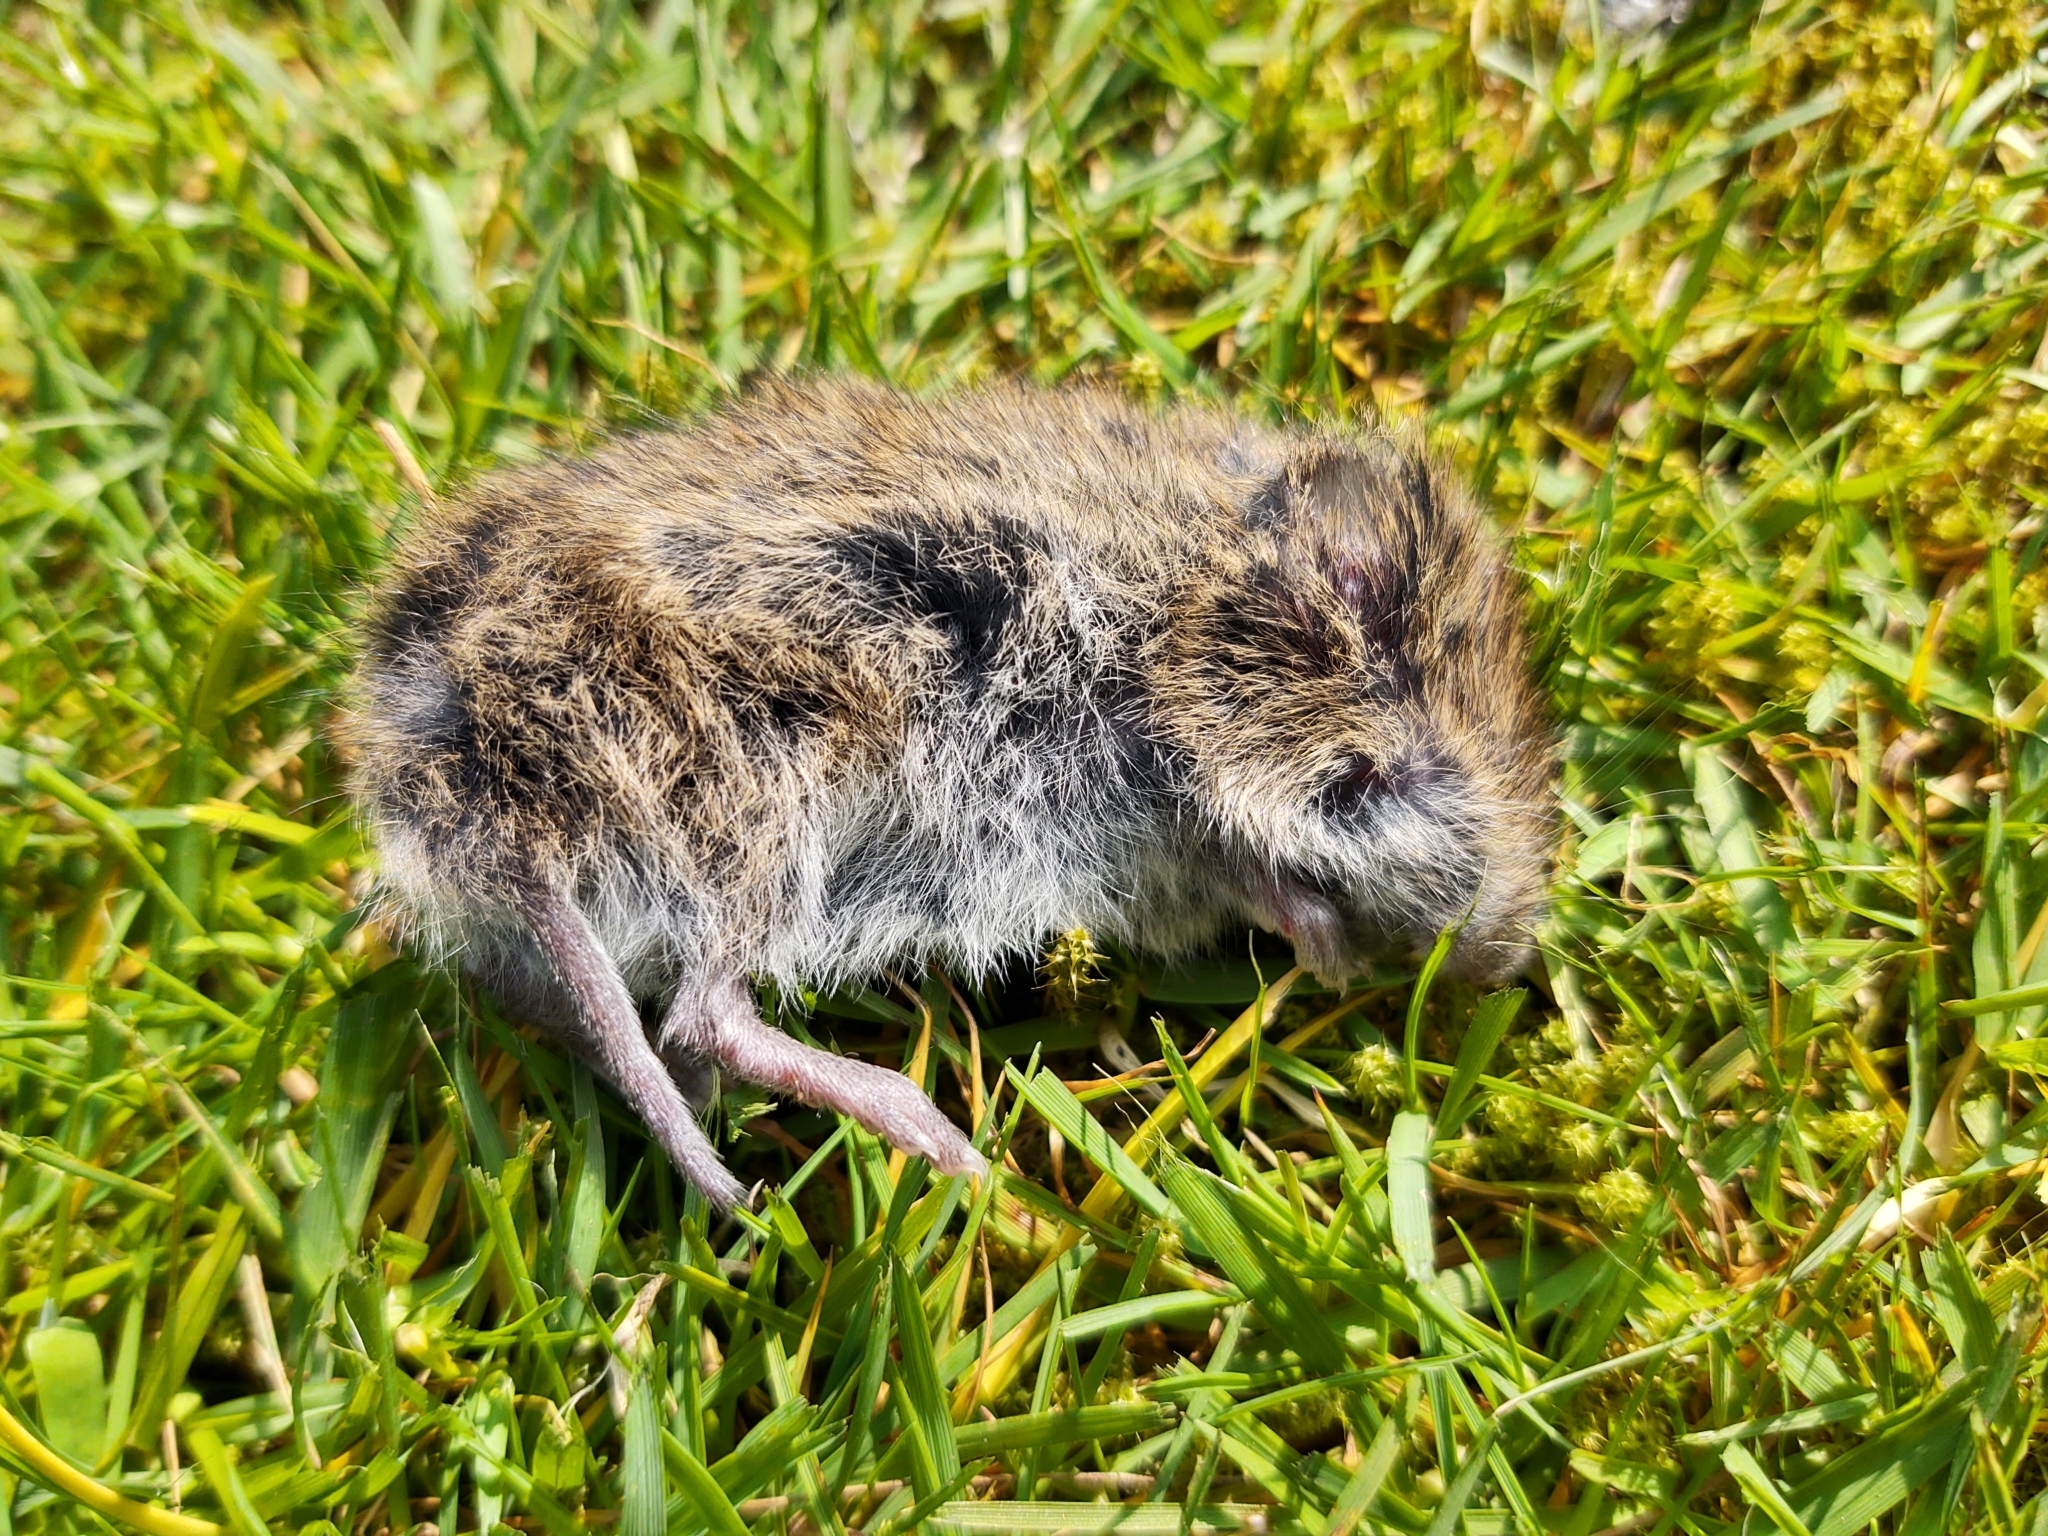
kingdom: Animalia
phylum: Chordata
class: Mammalia
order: Rodentia
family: Cricetidae
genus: Myodes
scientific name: Myodes glareolus
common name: Bank vole
